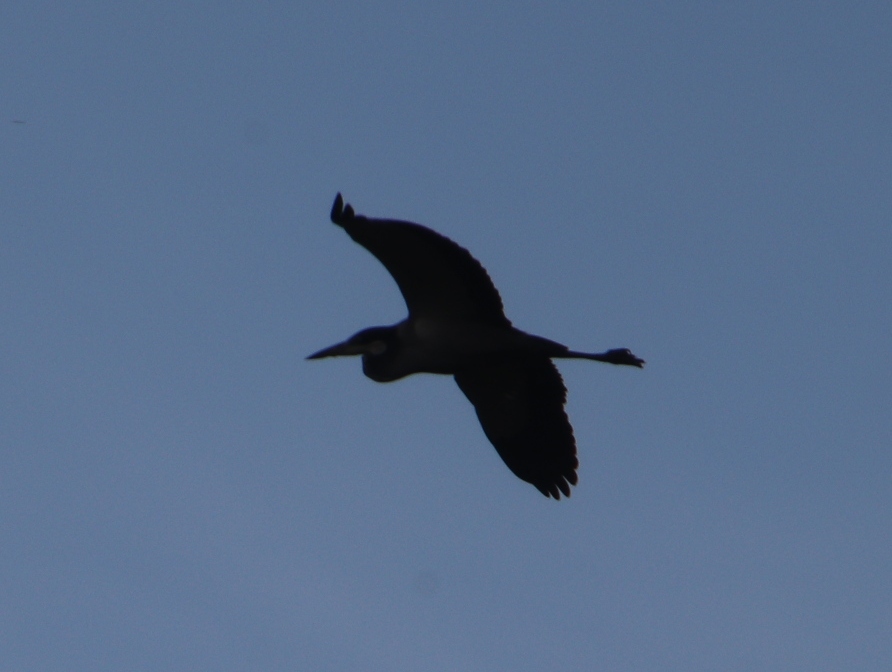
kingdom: Animalia
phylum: Chordata
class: Aves
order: Pelecaniformes
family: Ardeidae
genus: Ardea
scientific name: Ardea melanocephala
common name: Black-headed heron
